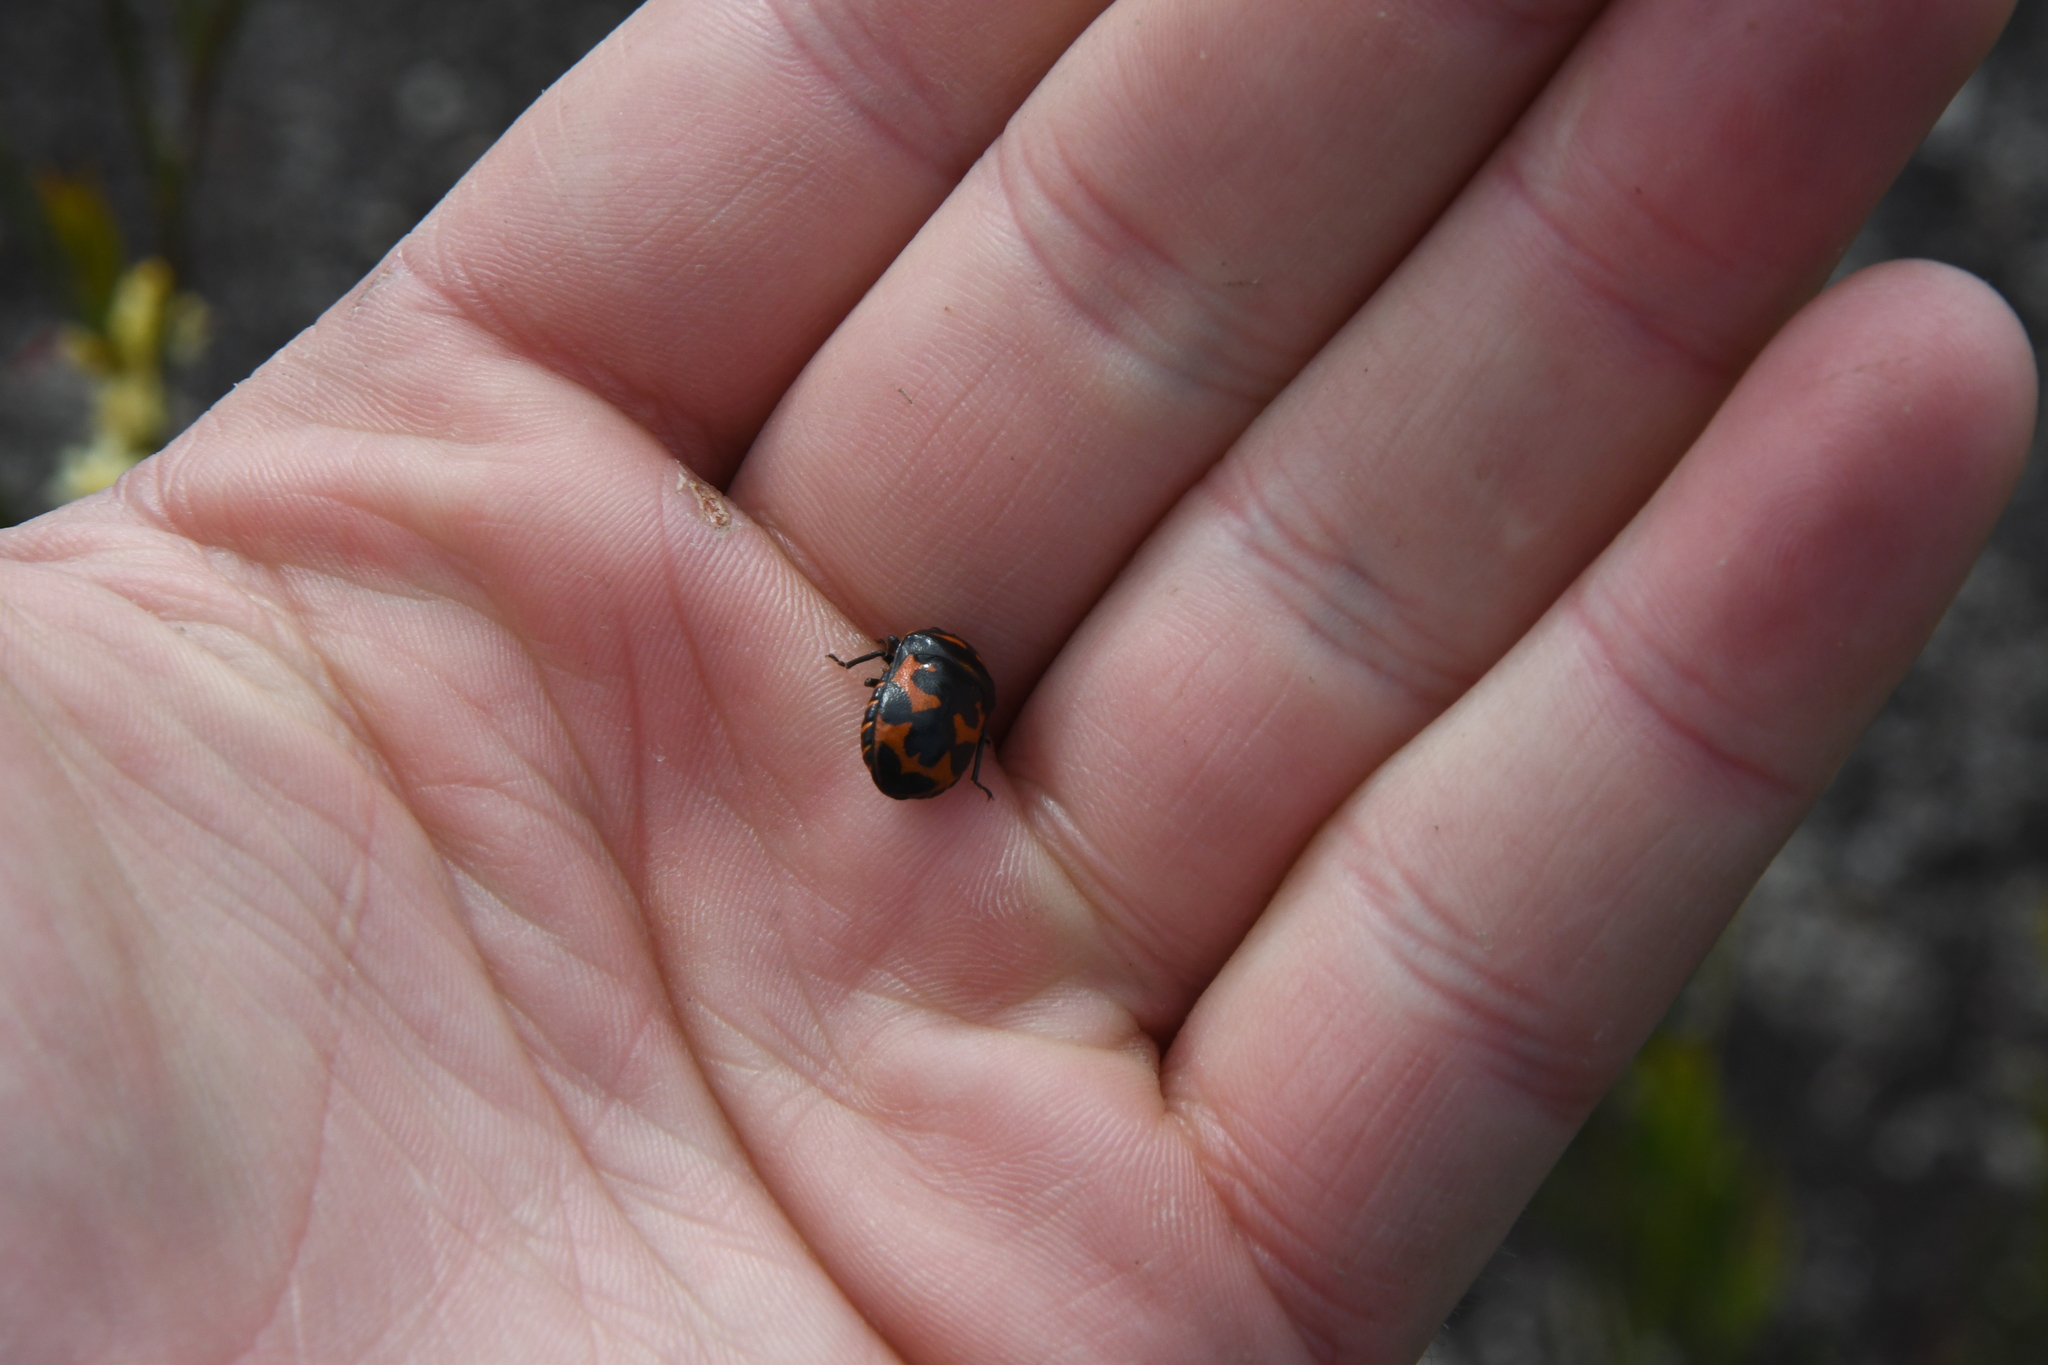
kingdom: Animalia
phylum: Arthropoda
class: Insecta
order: Hemiptera
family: Scutelleridae
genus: Choerocoris
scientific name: Choerocoris
